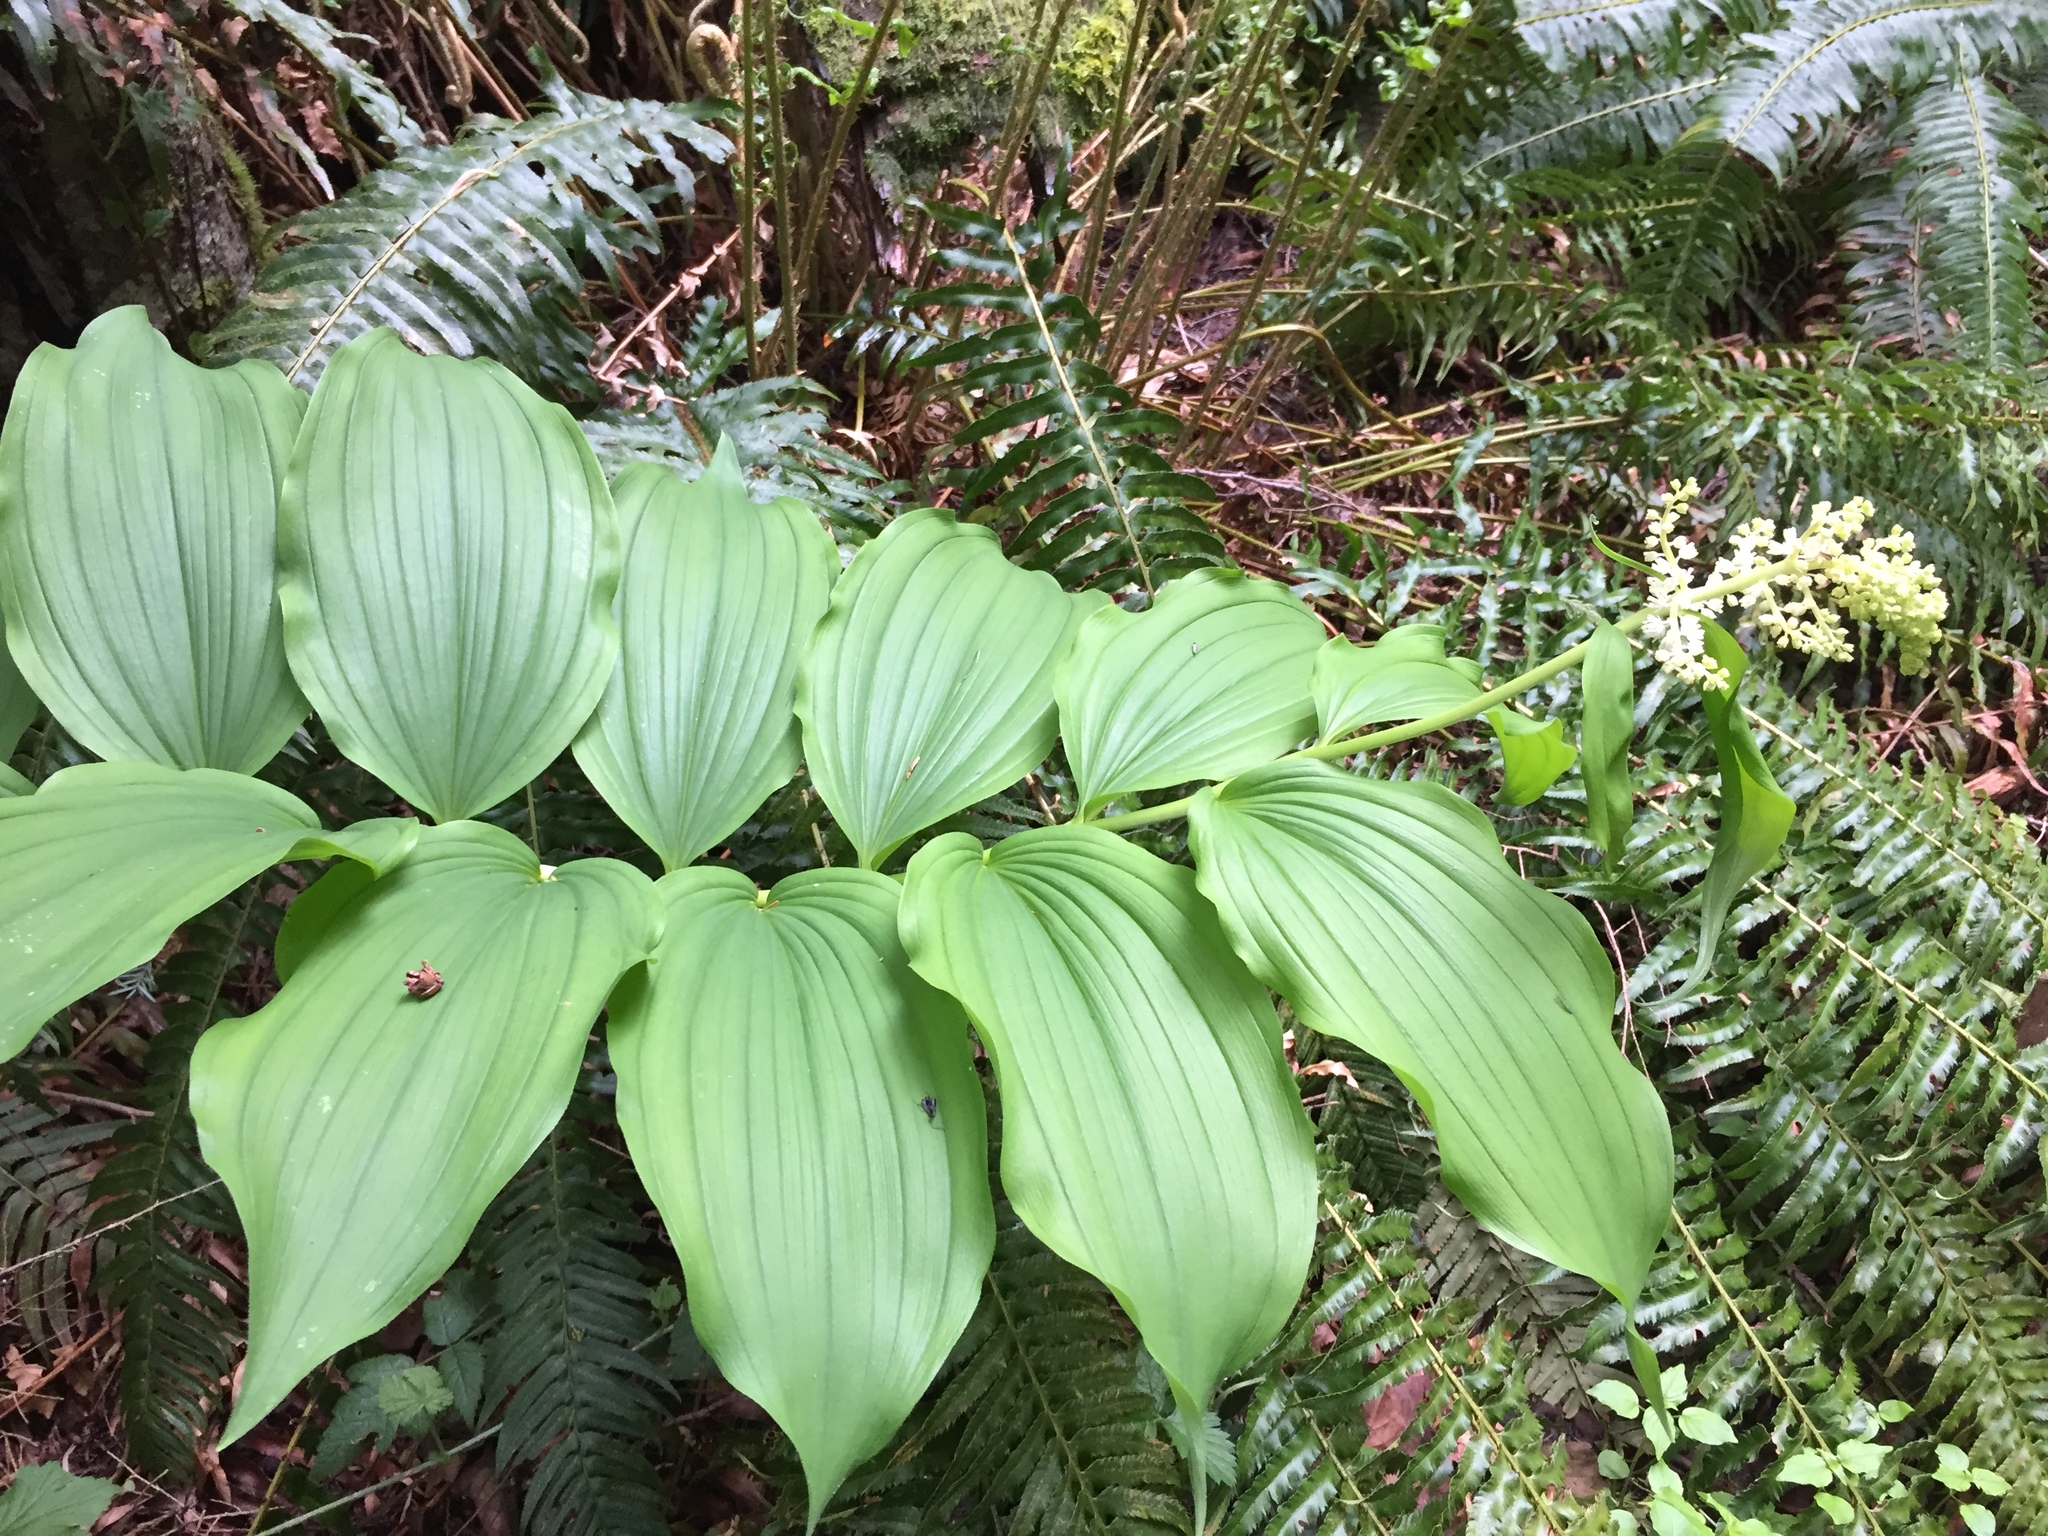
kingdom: Plantae
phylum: Tracheophyta
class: Liliopsida
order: Asparagales
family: Asparagaceae
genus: Maianthemum
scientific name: Maianthemum racemosum
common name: False spikenard
